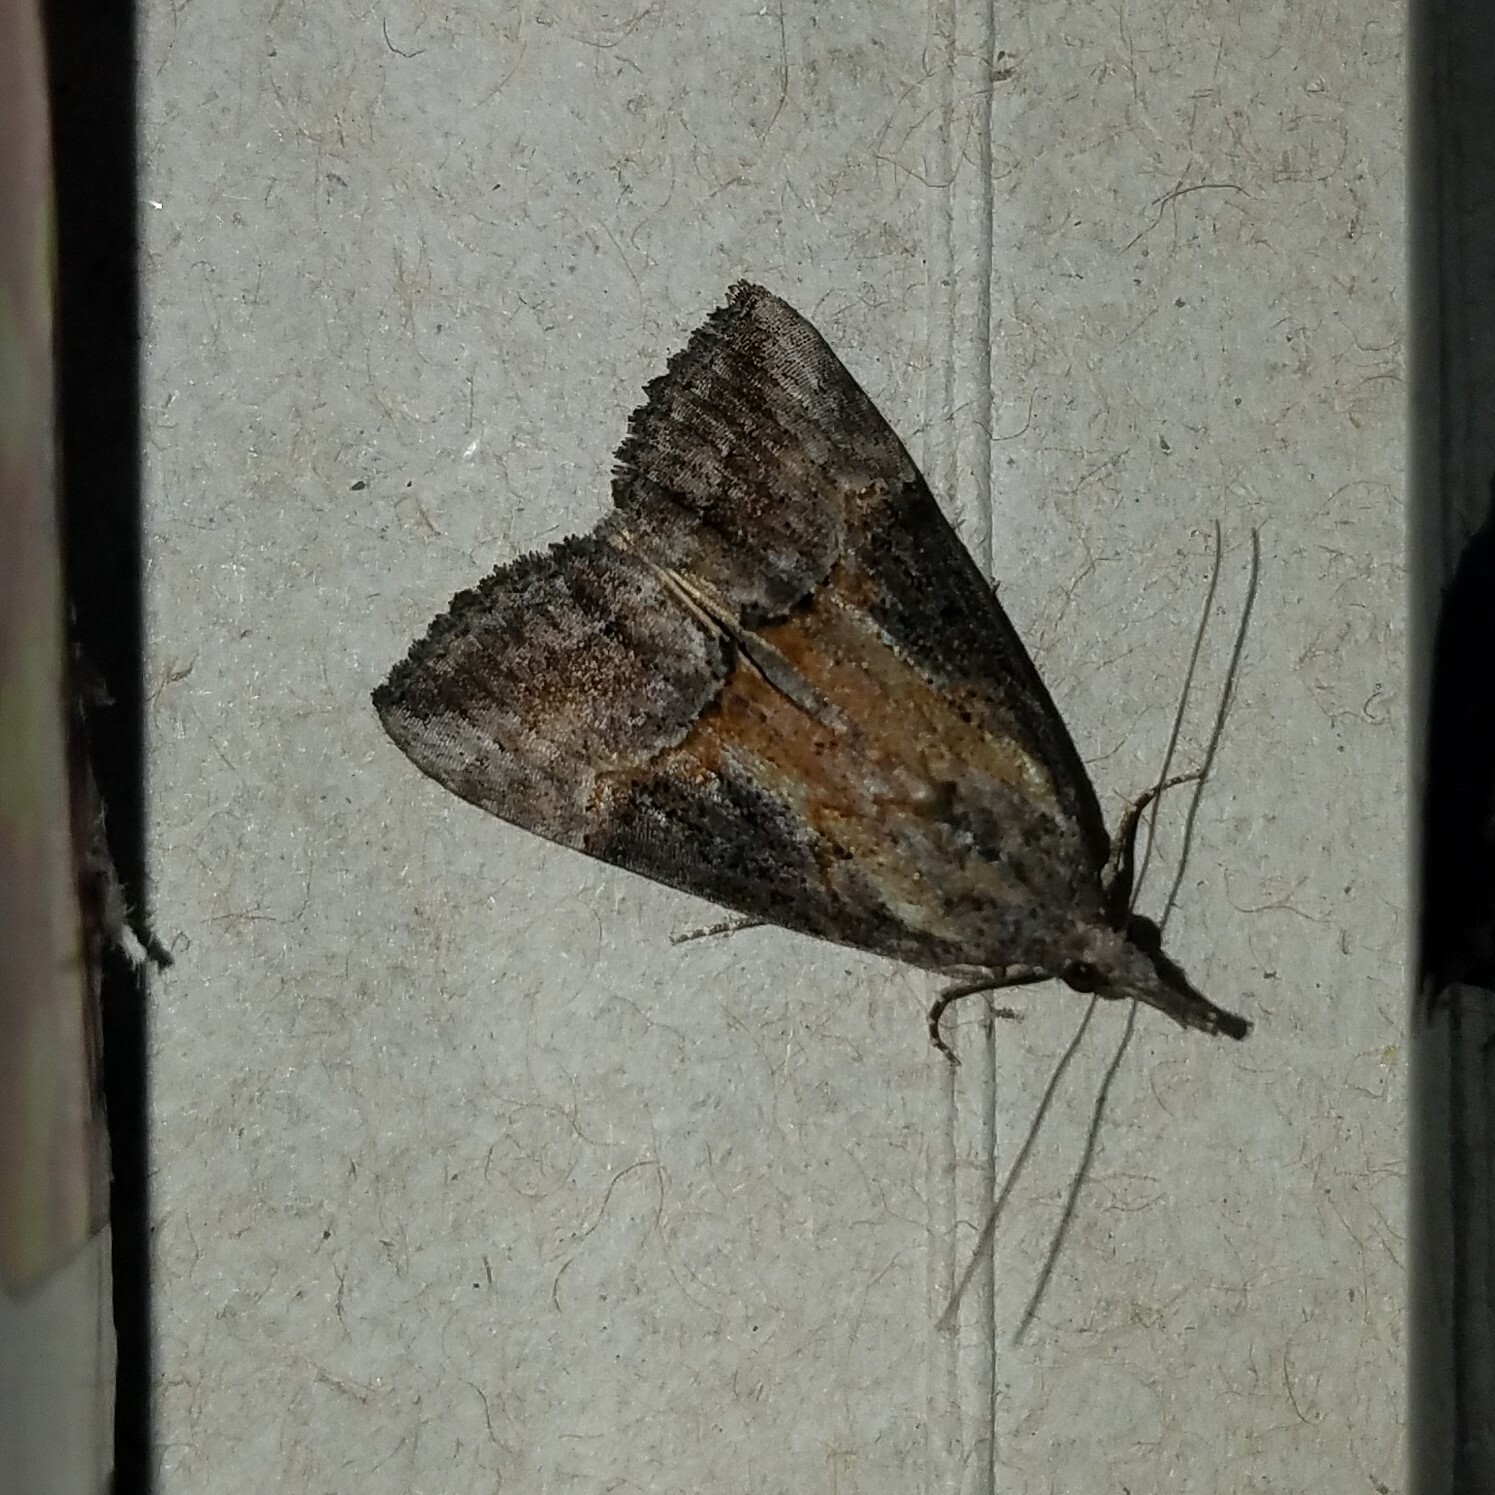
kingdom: Animalia
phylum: Arthropoda
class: Insecta
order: Lepidoptera
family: Erebidae
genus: Hypena
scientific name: Hypena scabra
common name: Green cloverworm
